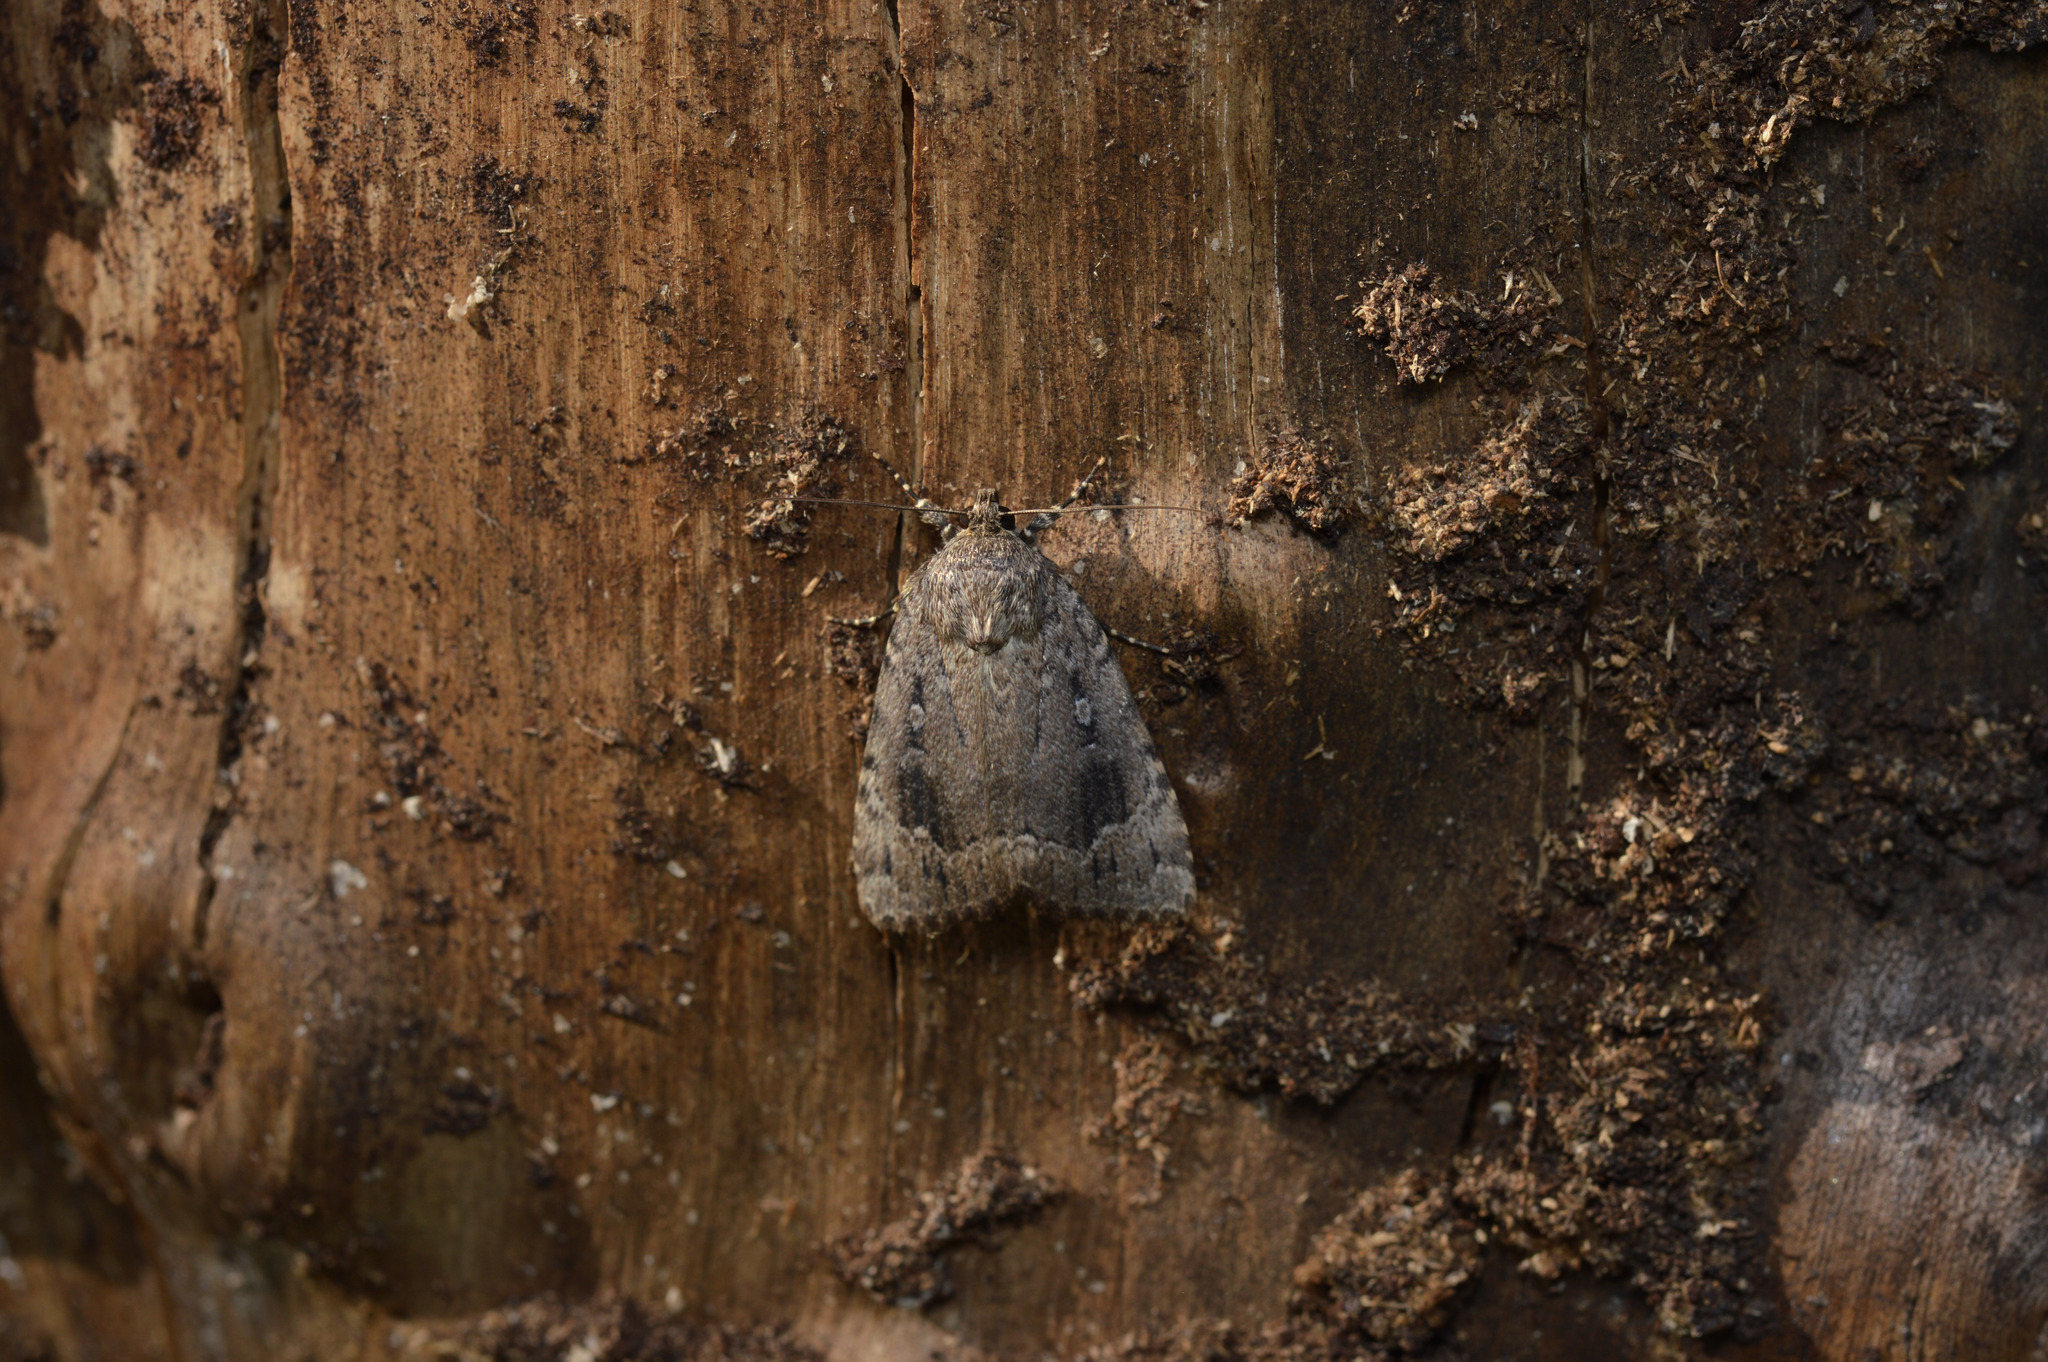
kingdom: Animalia
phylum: Arthropoda
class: Insecta
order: Lepidoptera
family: Noctuidae
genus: Amphipyra
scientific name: Amphipyra pyramidoides
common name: American copper underwing
